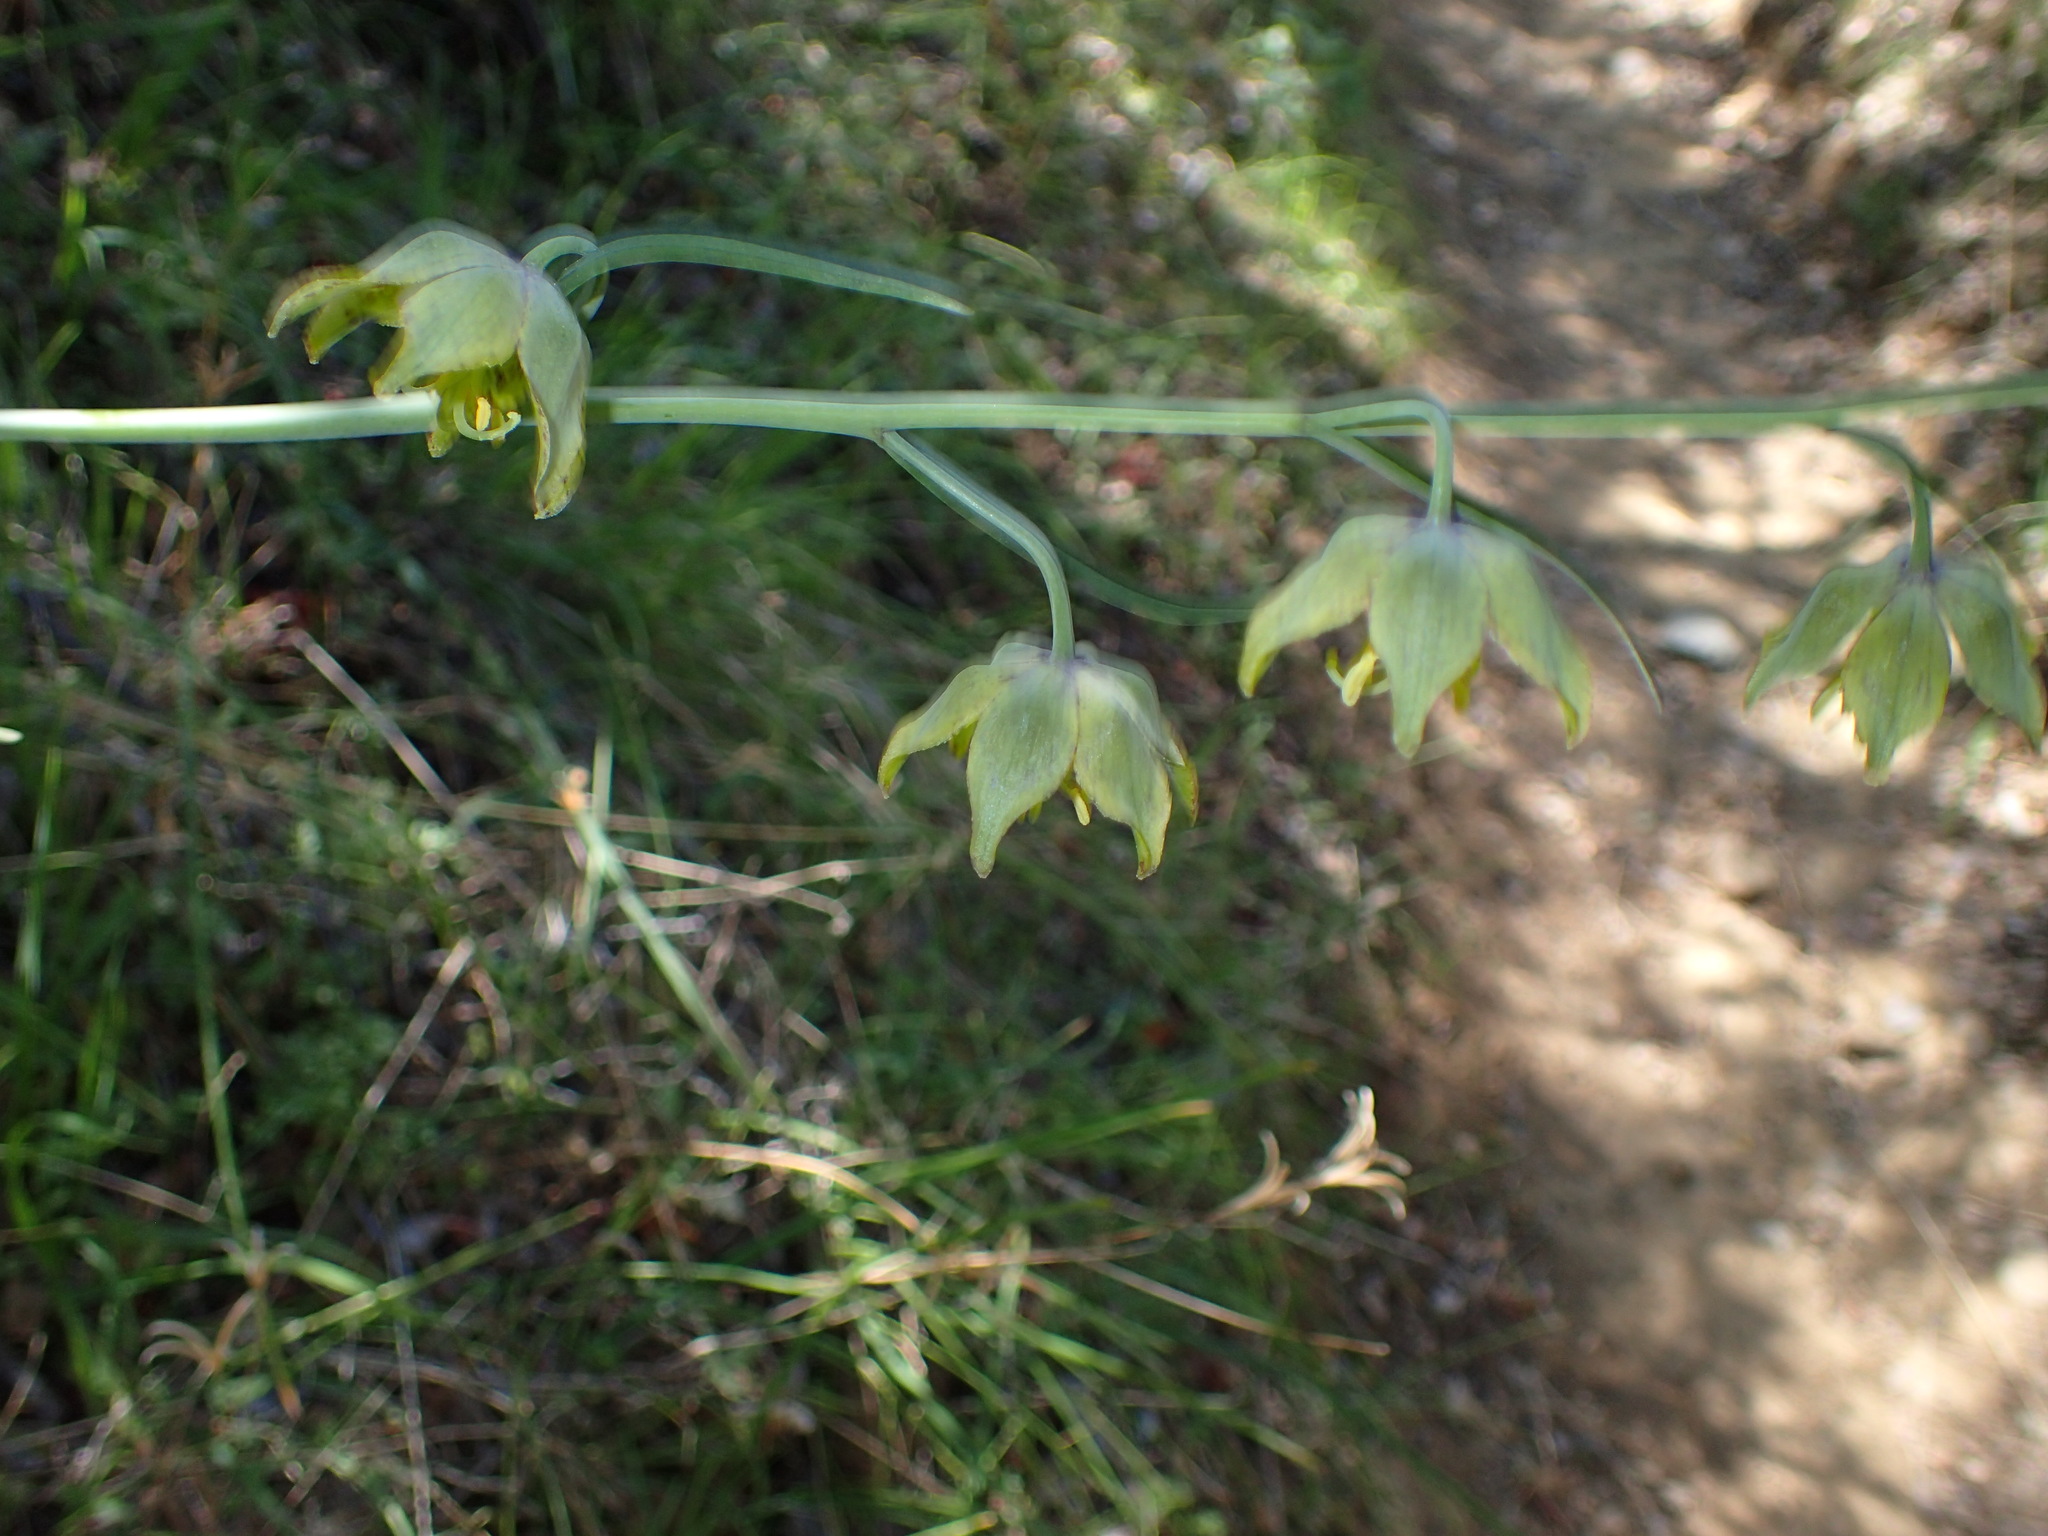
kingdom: Plantae
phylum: Tracheophyta
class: Liliopsida
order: Liliales
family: Liliaceae
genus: Fritillaria
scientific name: Fritillaria ojaiensis
